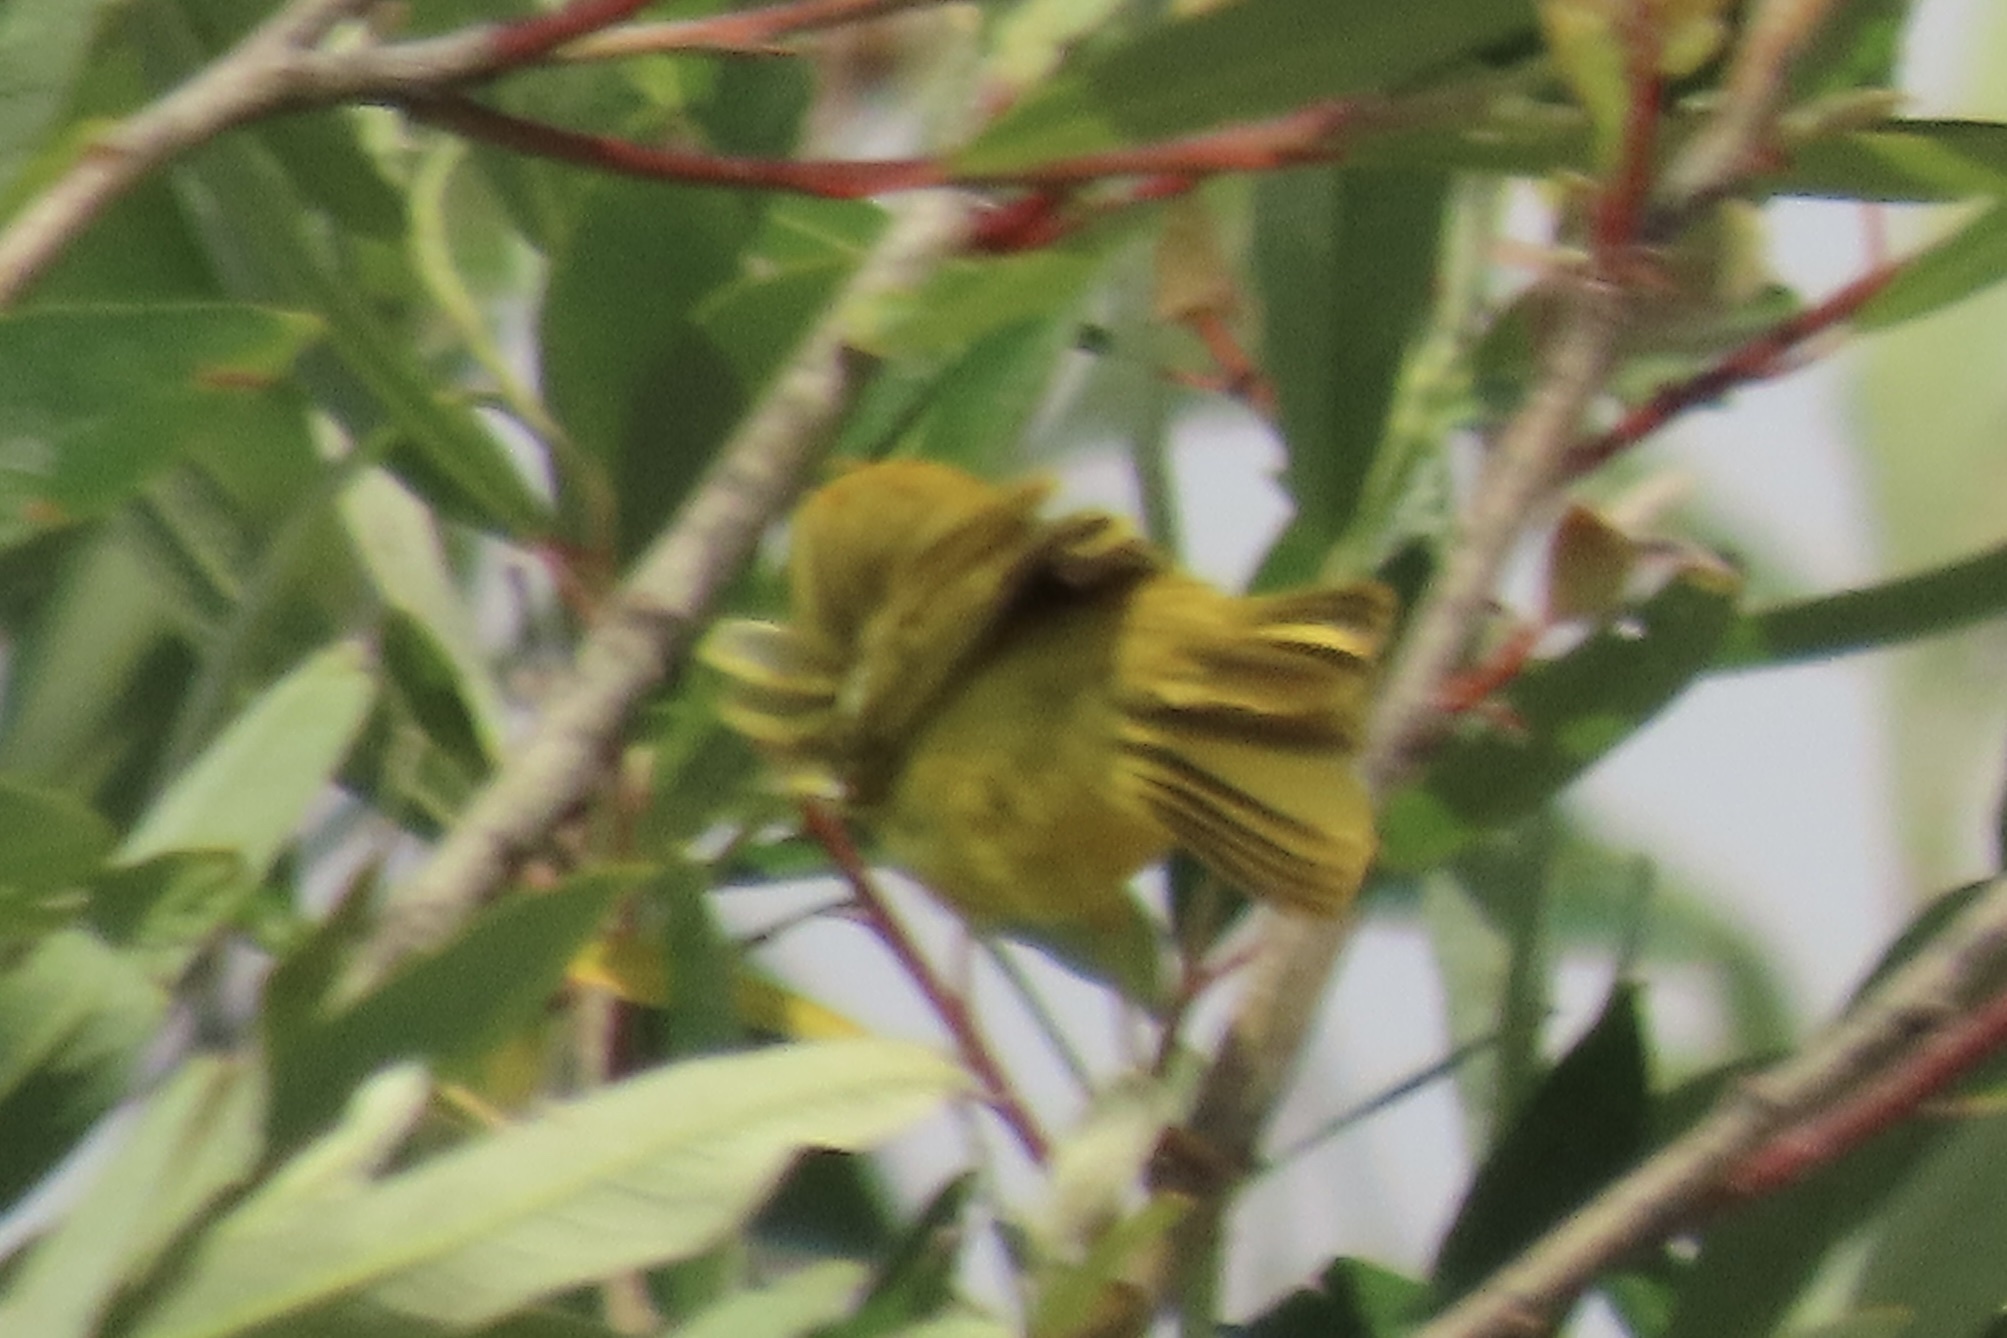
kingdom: Animalia
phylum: Chordata
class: Aves
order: Passeriformes
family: Parulidae
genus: Setophaga
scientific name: Setophaga petechia
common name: Yellow warbler
